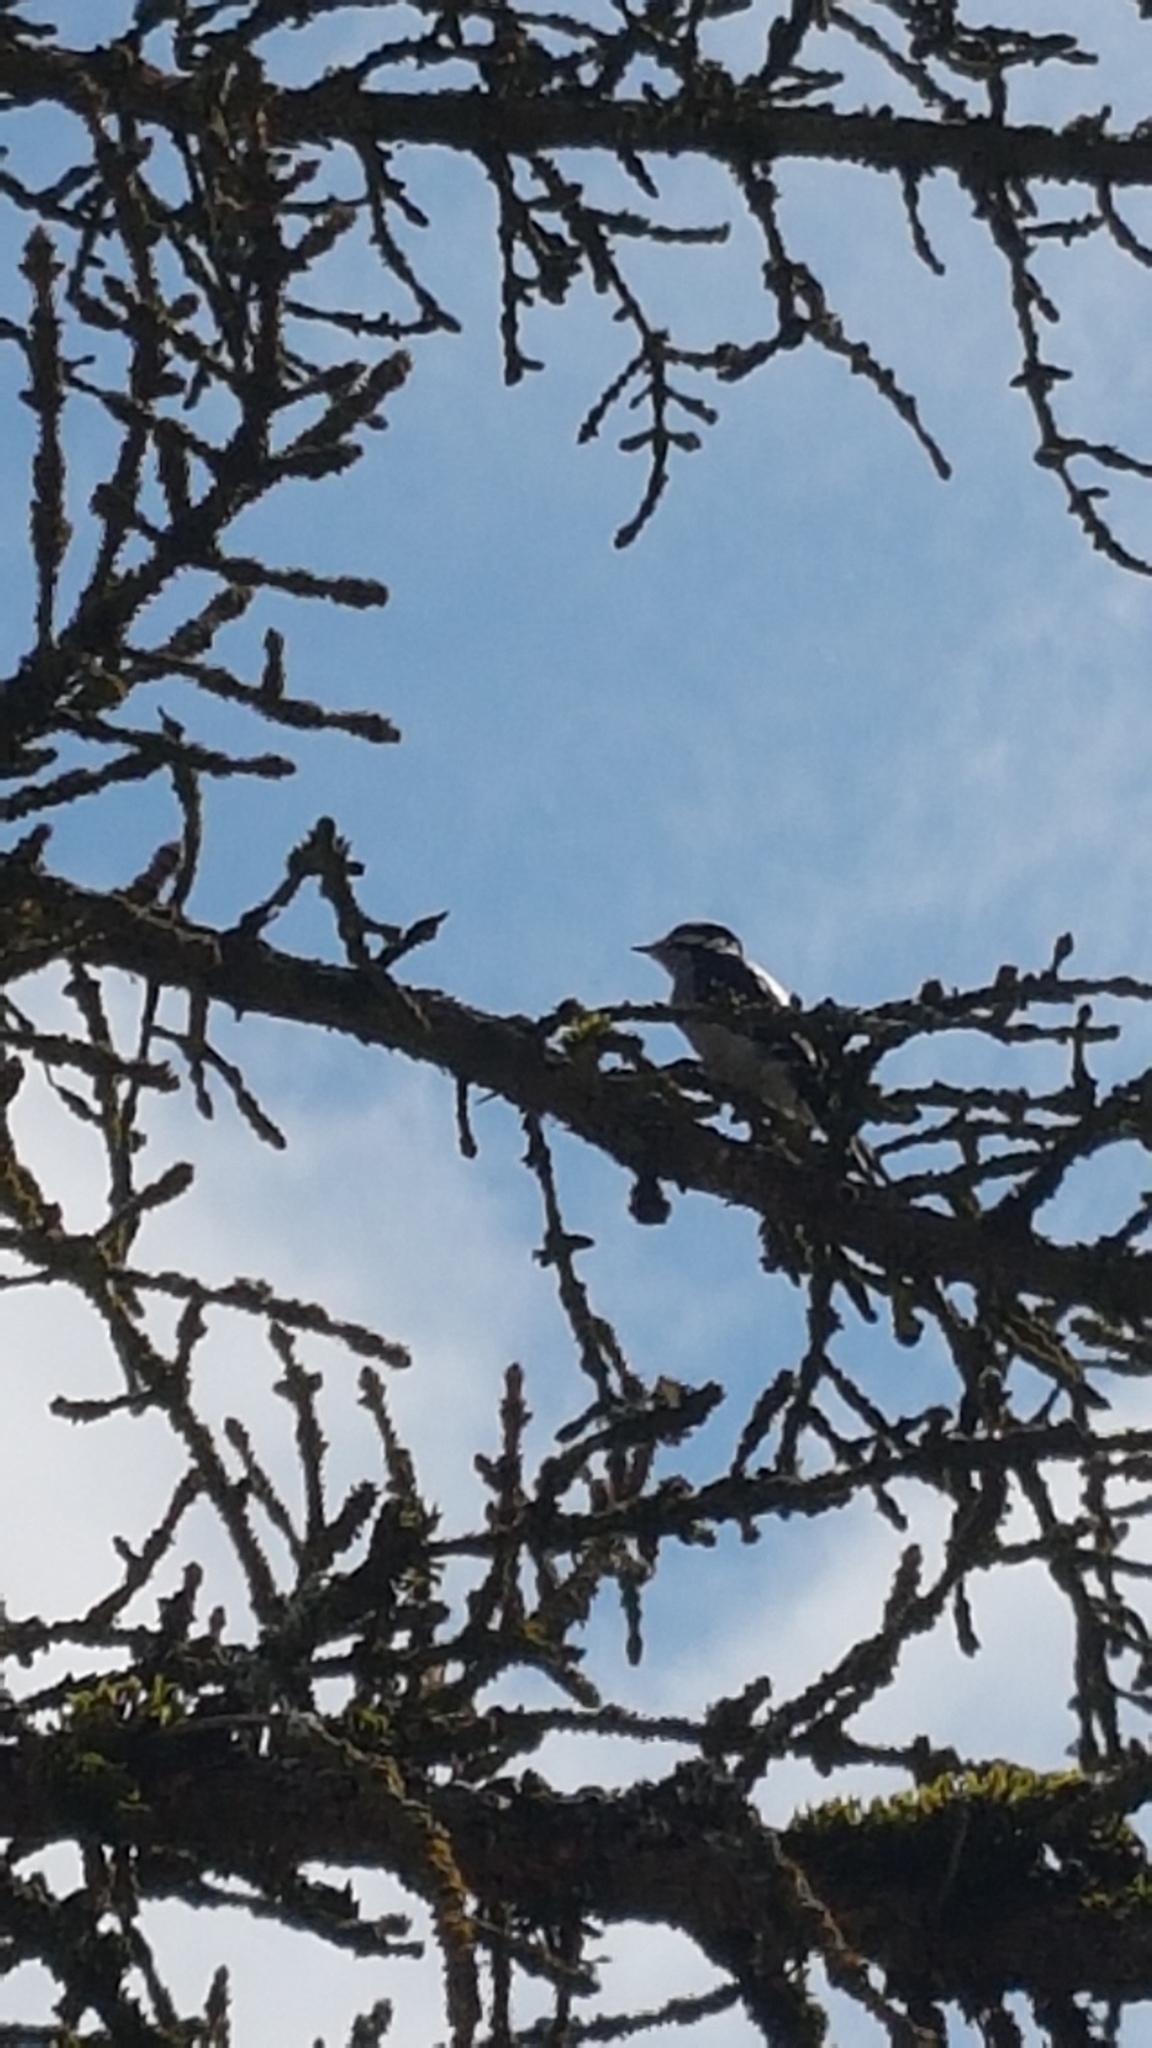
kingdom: Animalia
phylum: Chordata
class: Aves
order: Piciformes
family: Picidae
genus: Dryobates
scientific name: Dryobates pubescens
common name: Downy woodpecker
